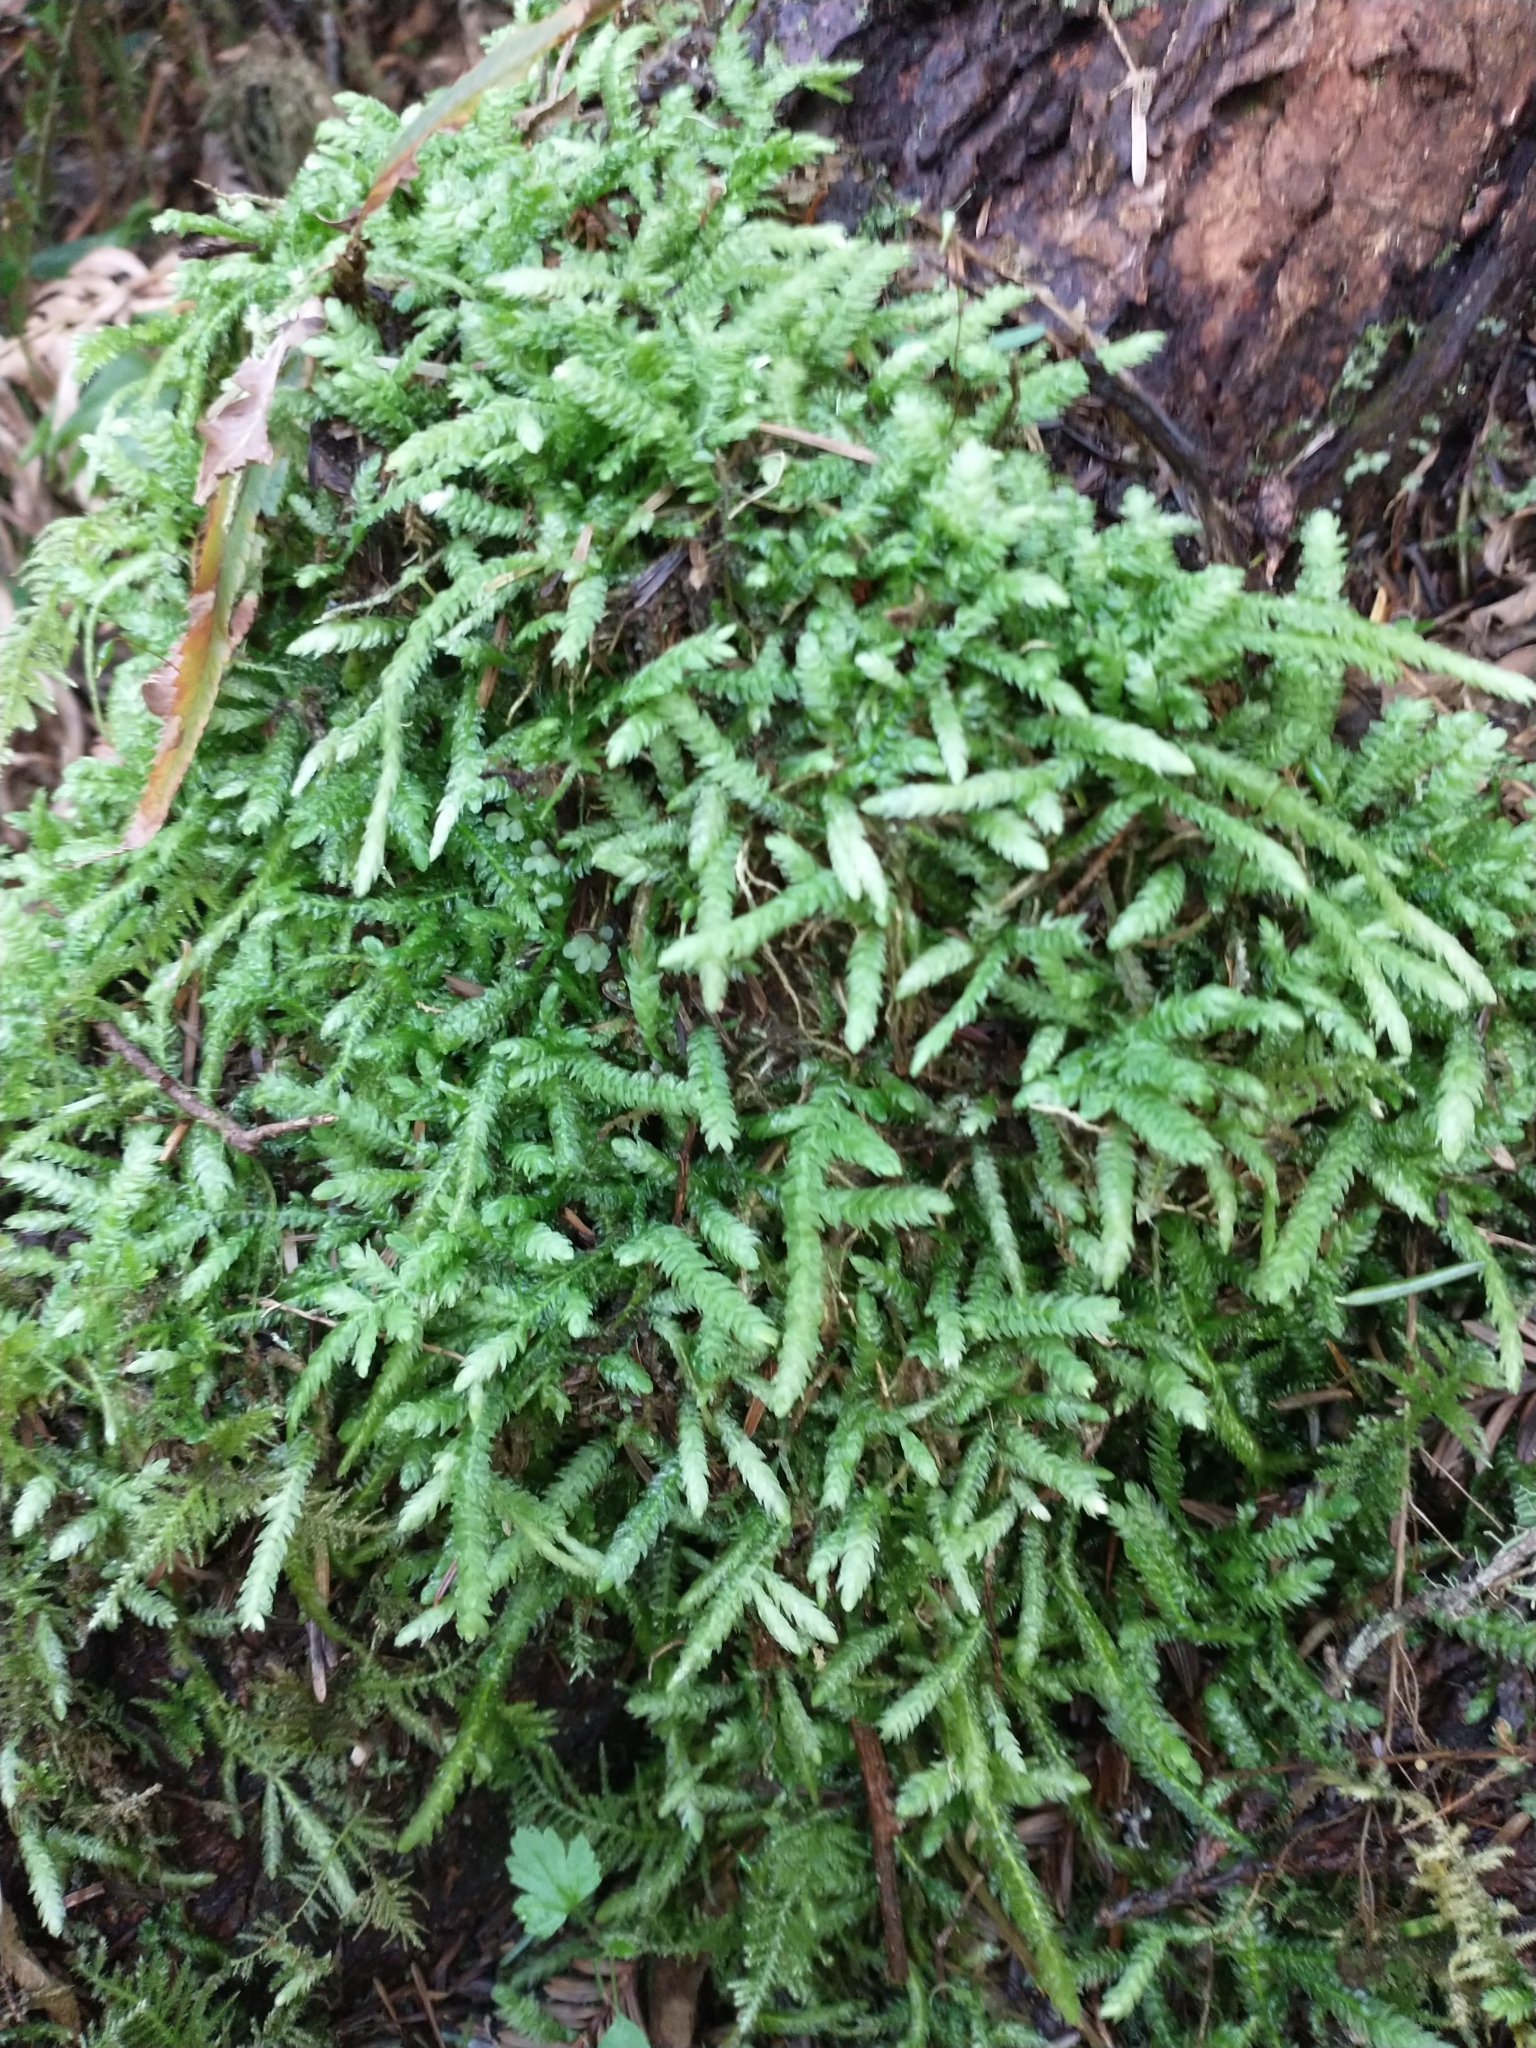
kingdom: Plantae
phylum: Bryophyta
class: Bryopsida
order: Hypnales
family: Plagiotheciaceae
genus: Plagiothecium
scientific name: Plagiothecium undulatum
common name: Waved silk-moss
